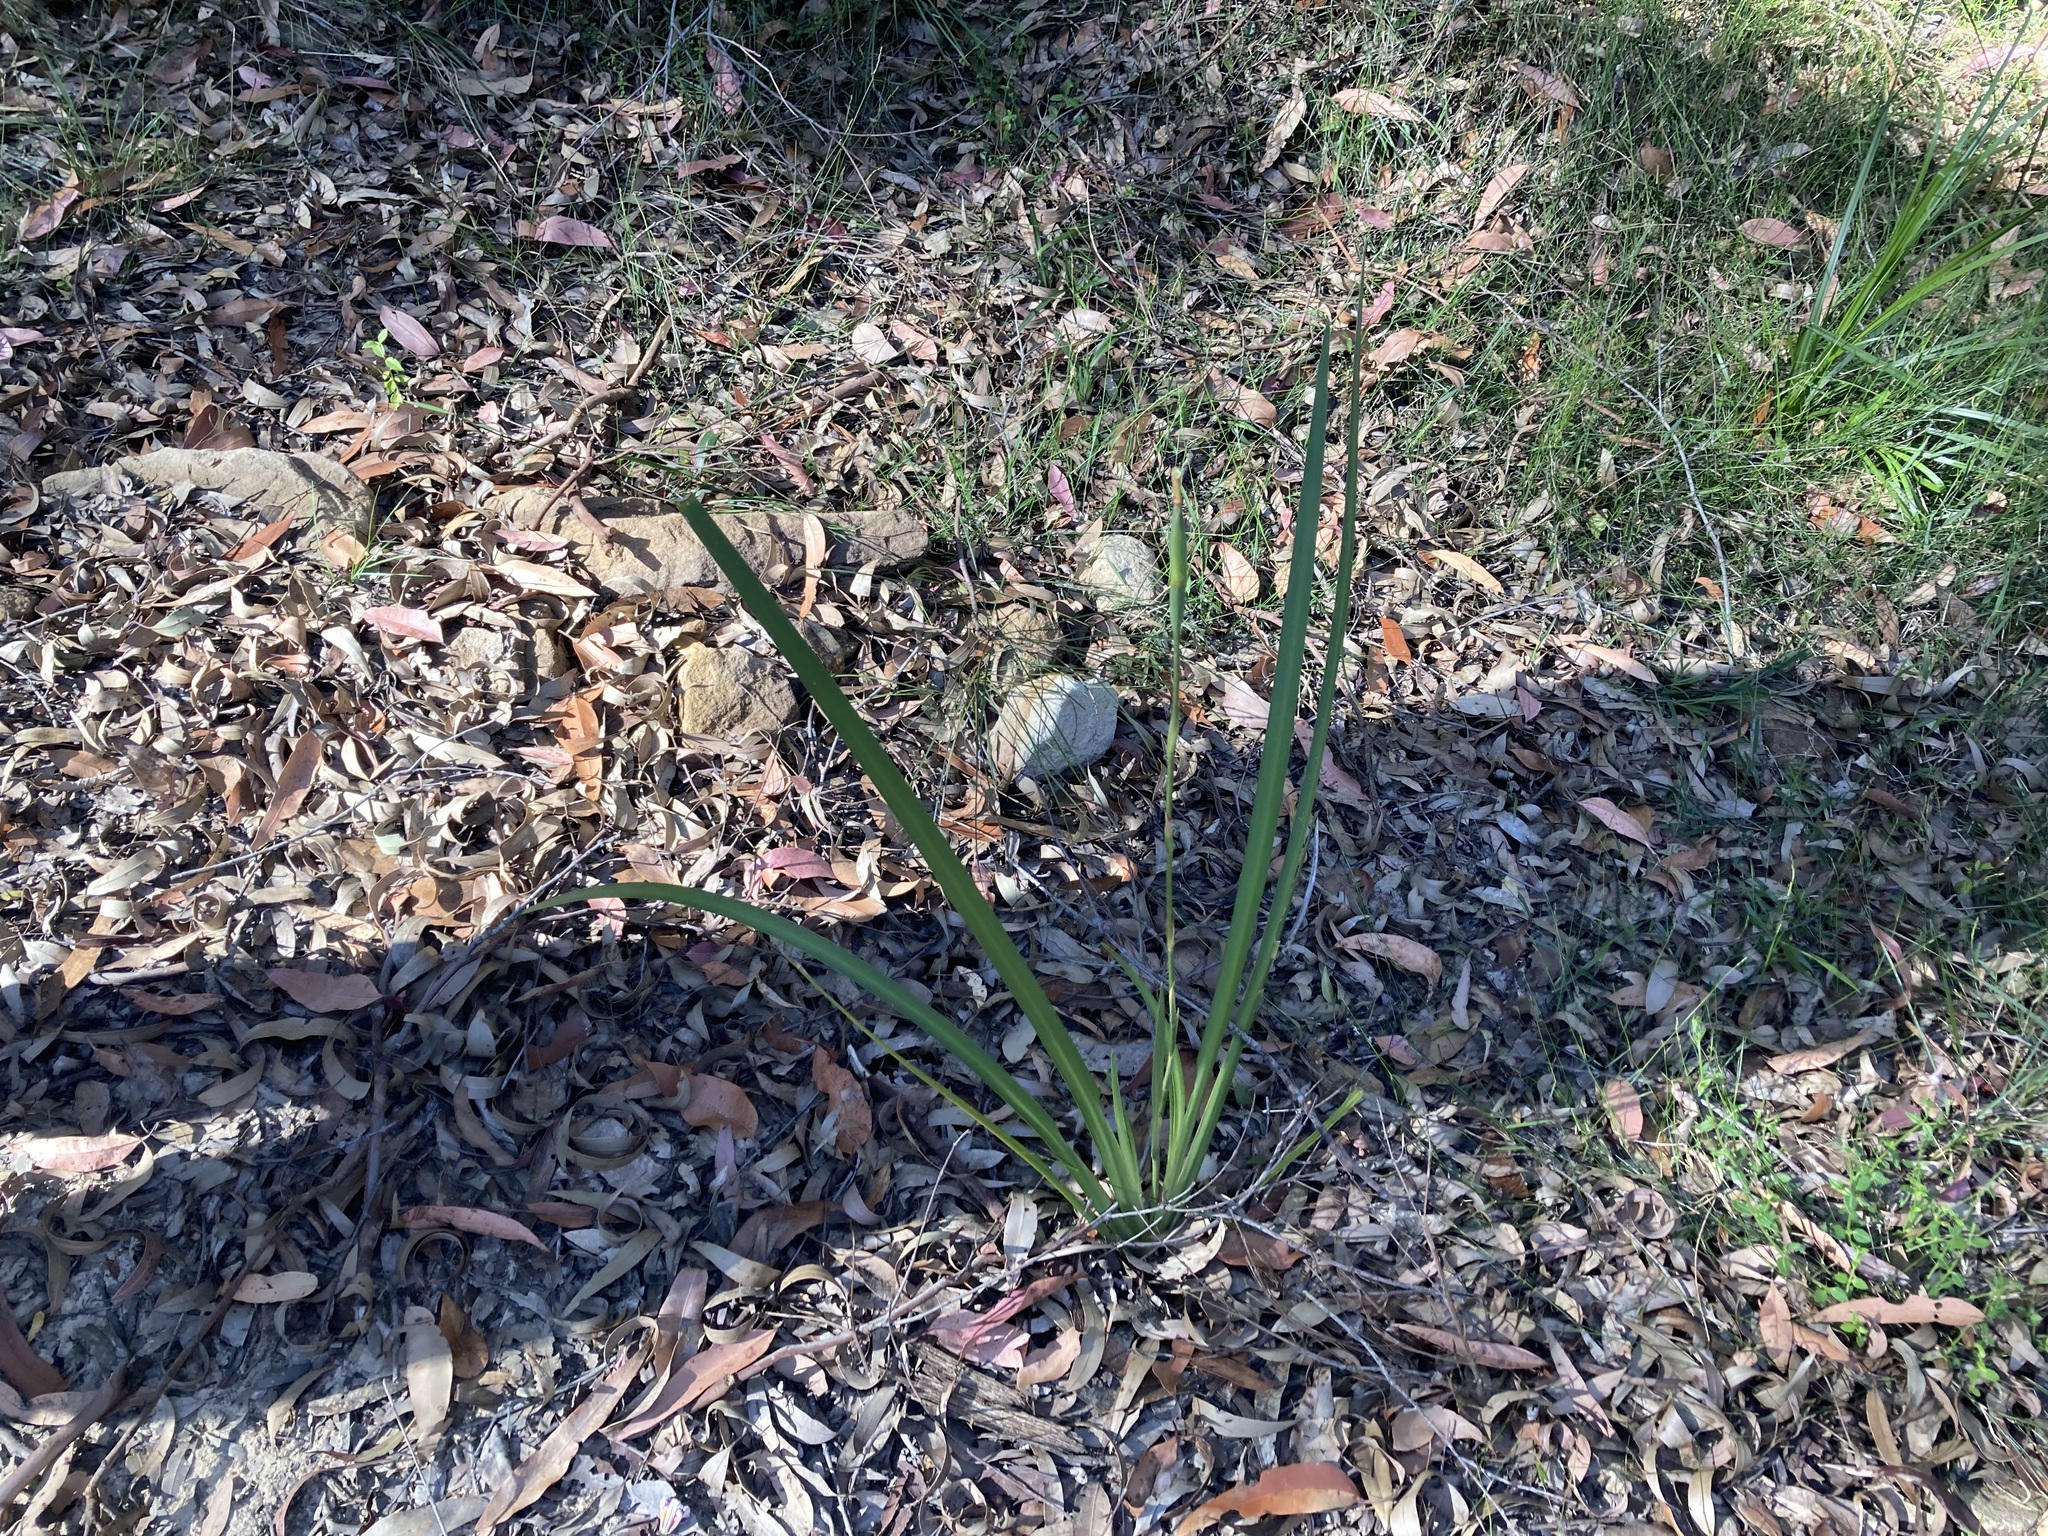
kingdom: Plantae
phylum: Tracheophyta
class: Liliopsida
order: Asparagales
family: Iridaceae
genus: Dietes
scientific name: Dietes grandiflora
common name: Wild iris
